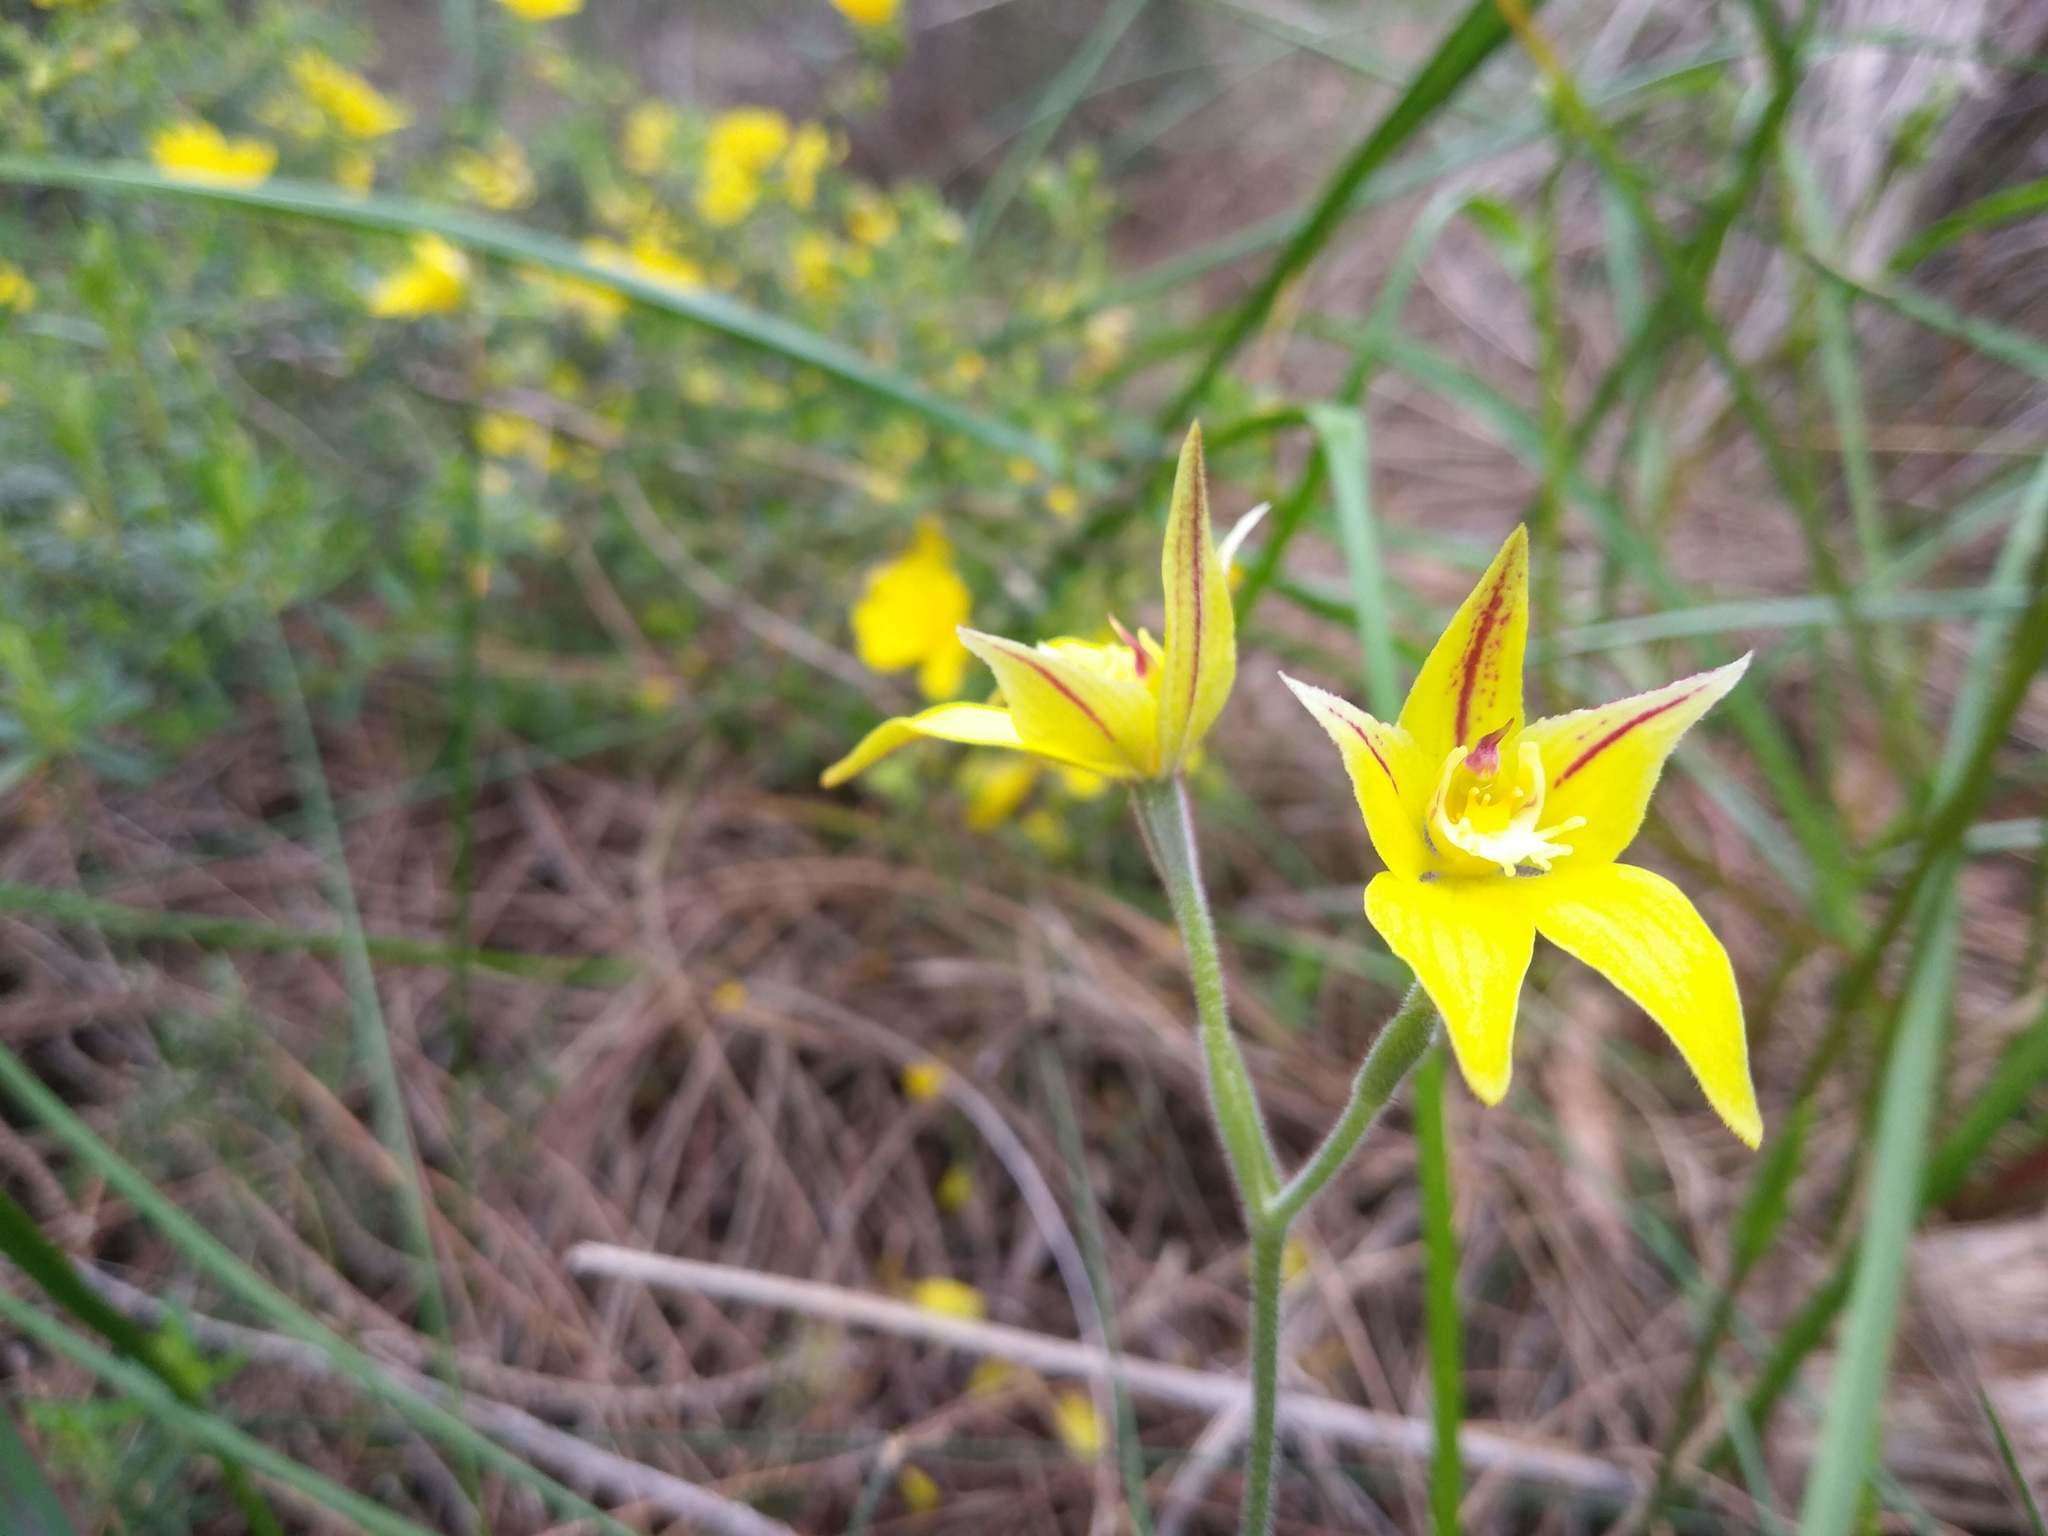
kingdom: Plantae
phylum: Tracheophyta
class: Liliopsida
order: Asparagales
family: Orchidaceae
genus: Caladenia
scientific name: Caladenia flava
